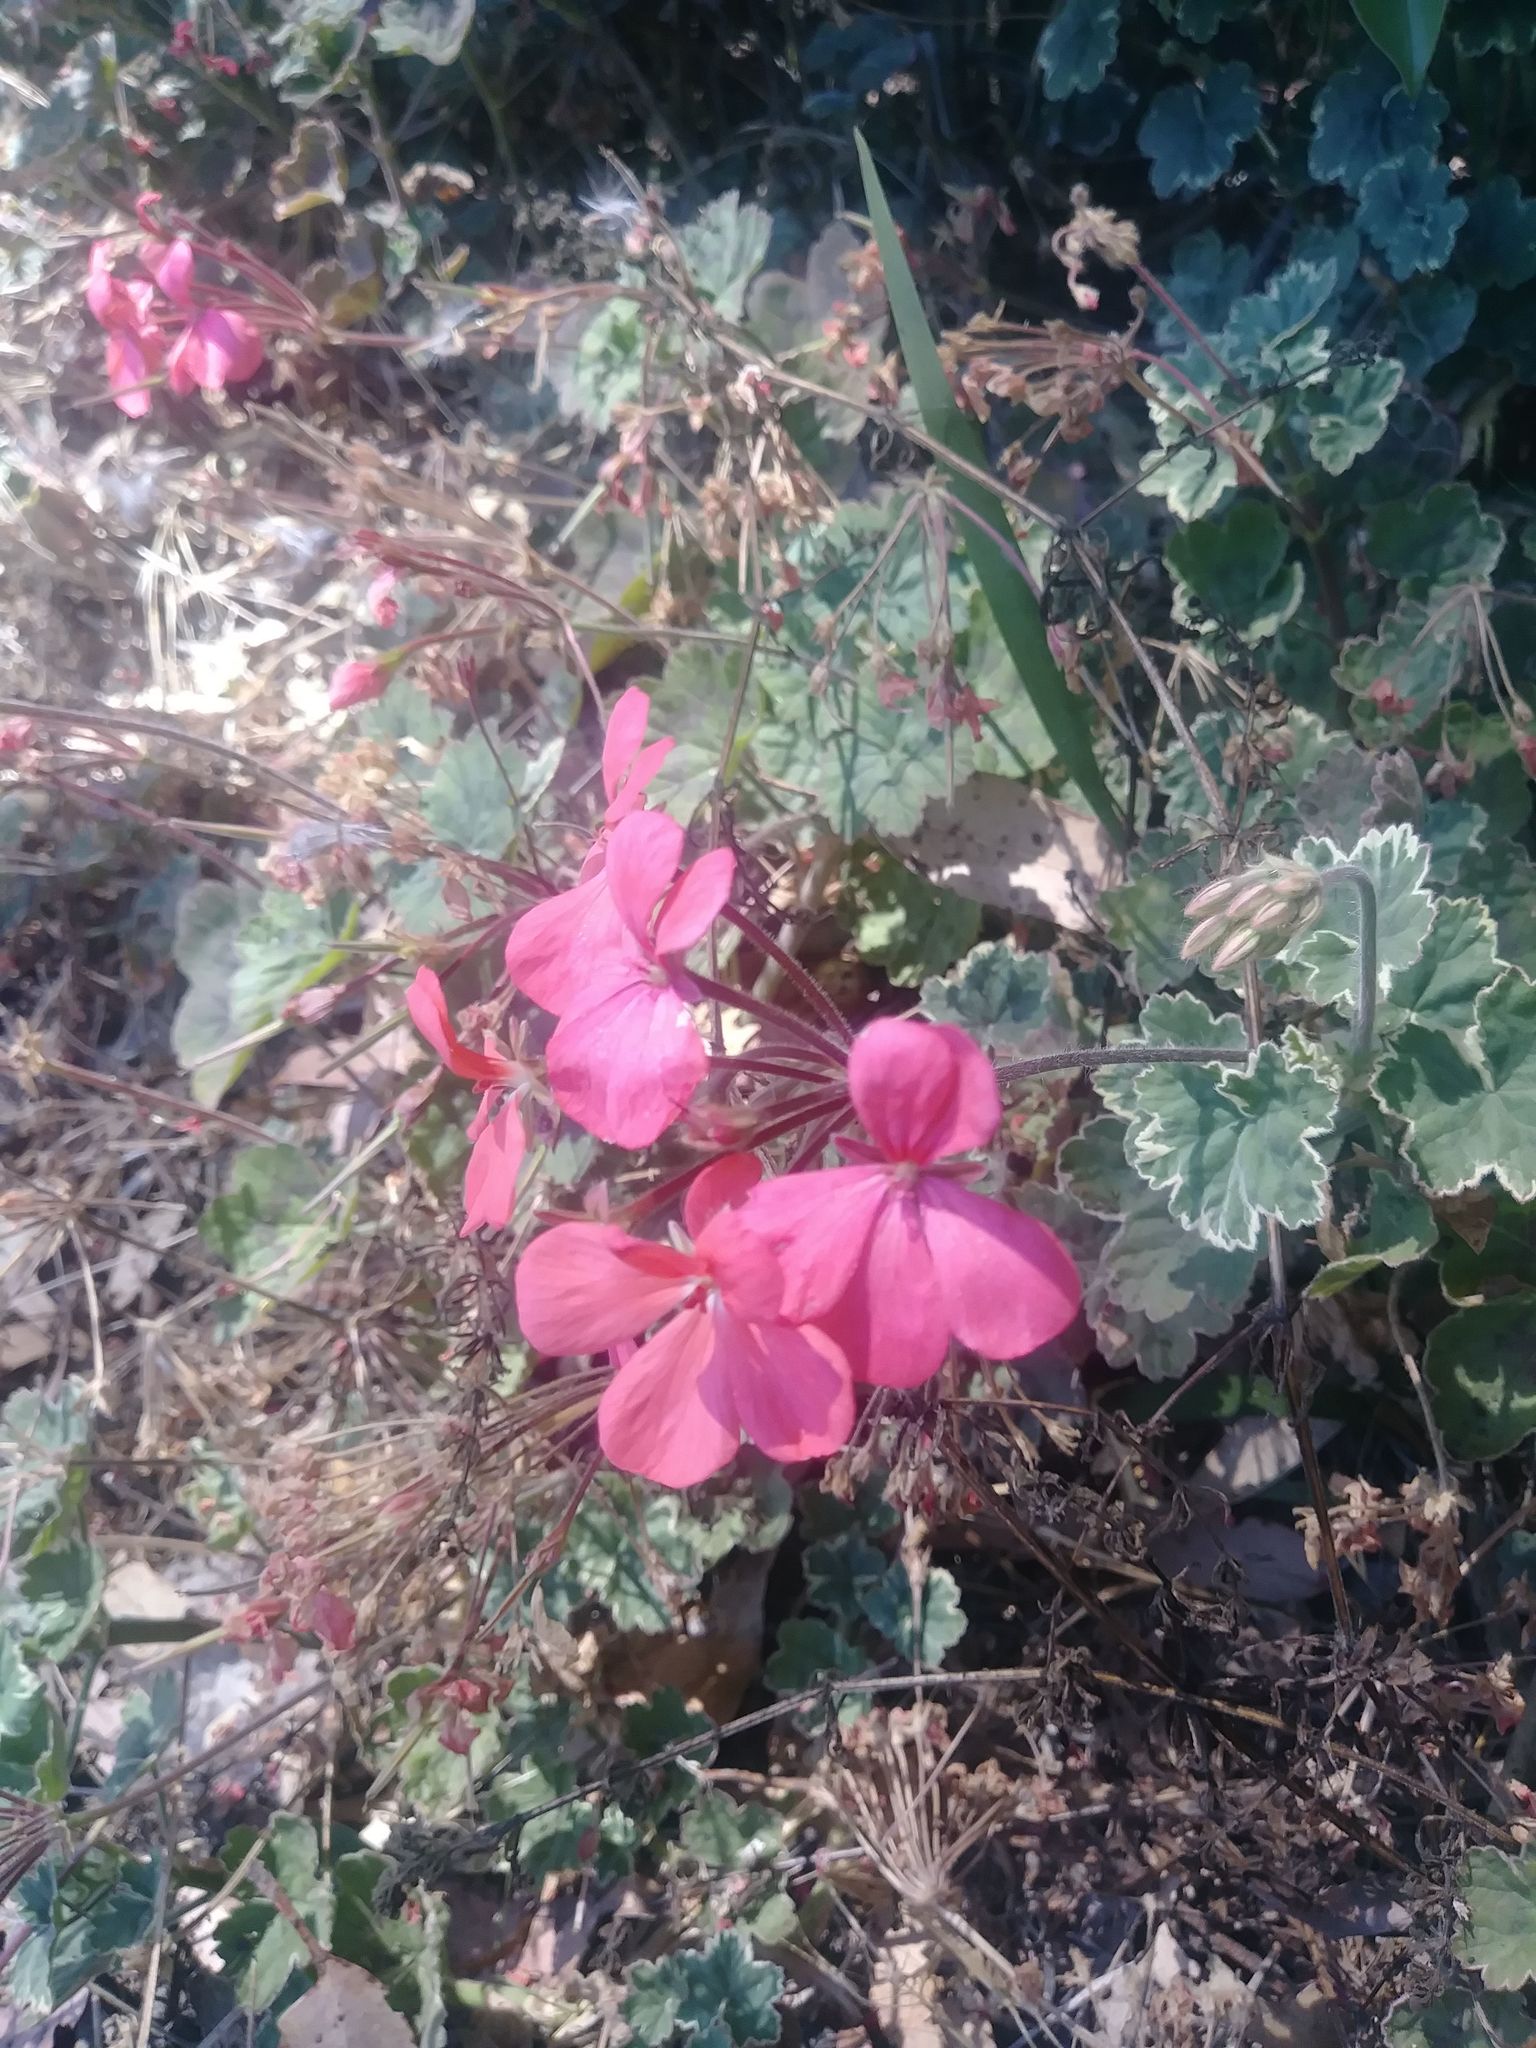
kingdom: Plantae
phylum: Tracheophyta
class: Magnoliopsida
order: Geraniales
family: Geraniaceae
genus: Pelargonium
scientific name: Pelargonium hybridum
